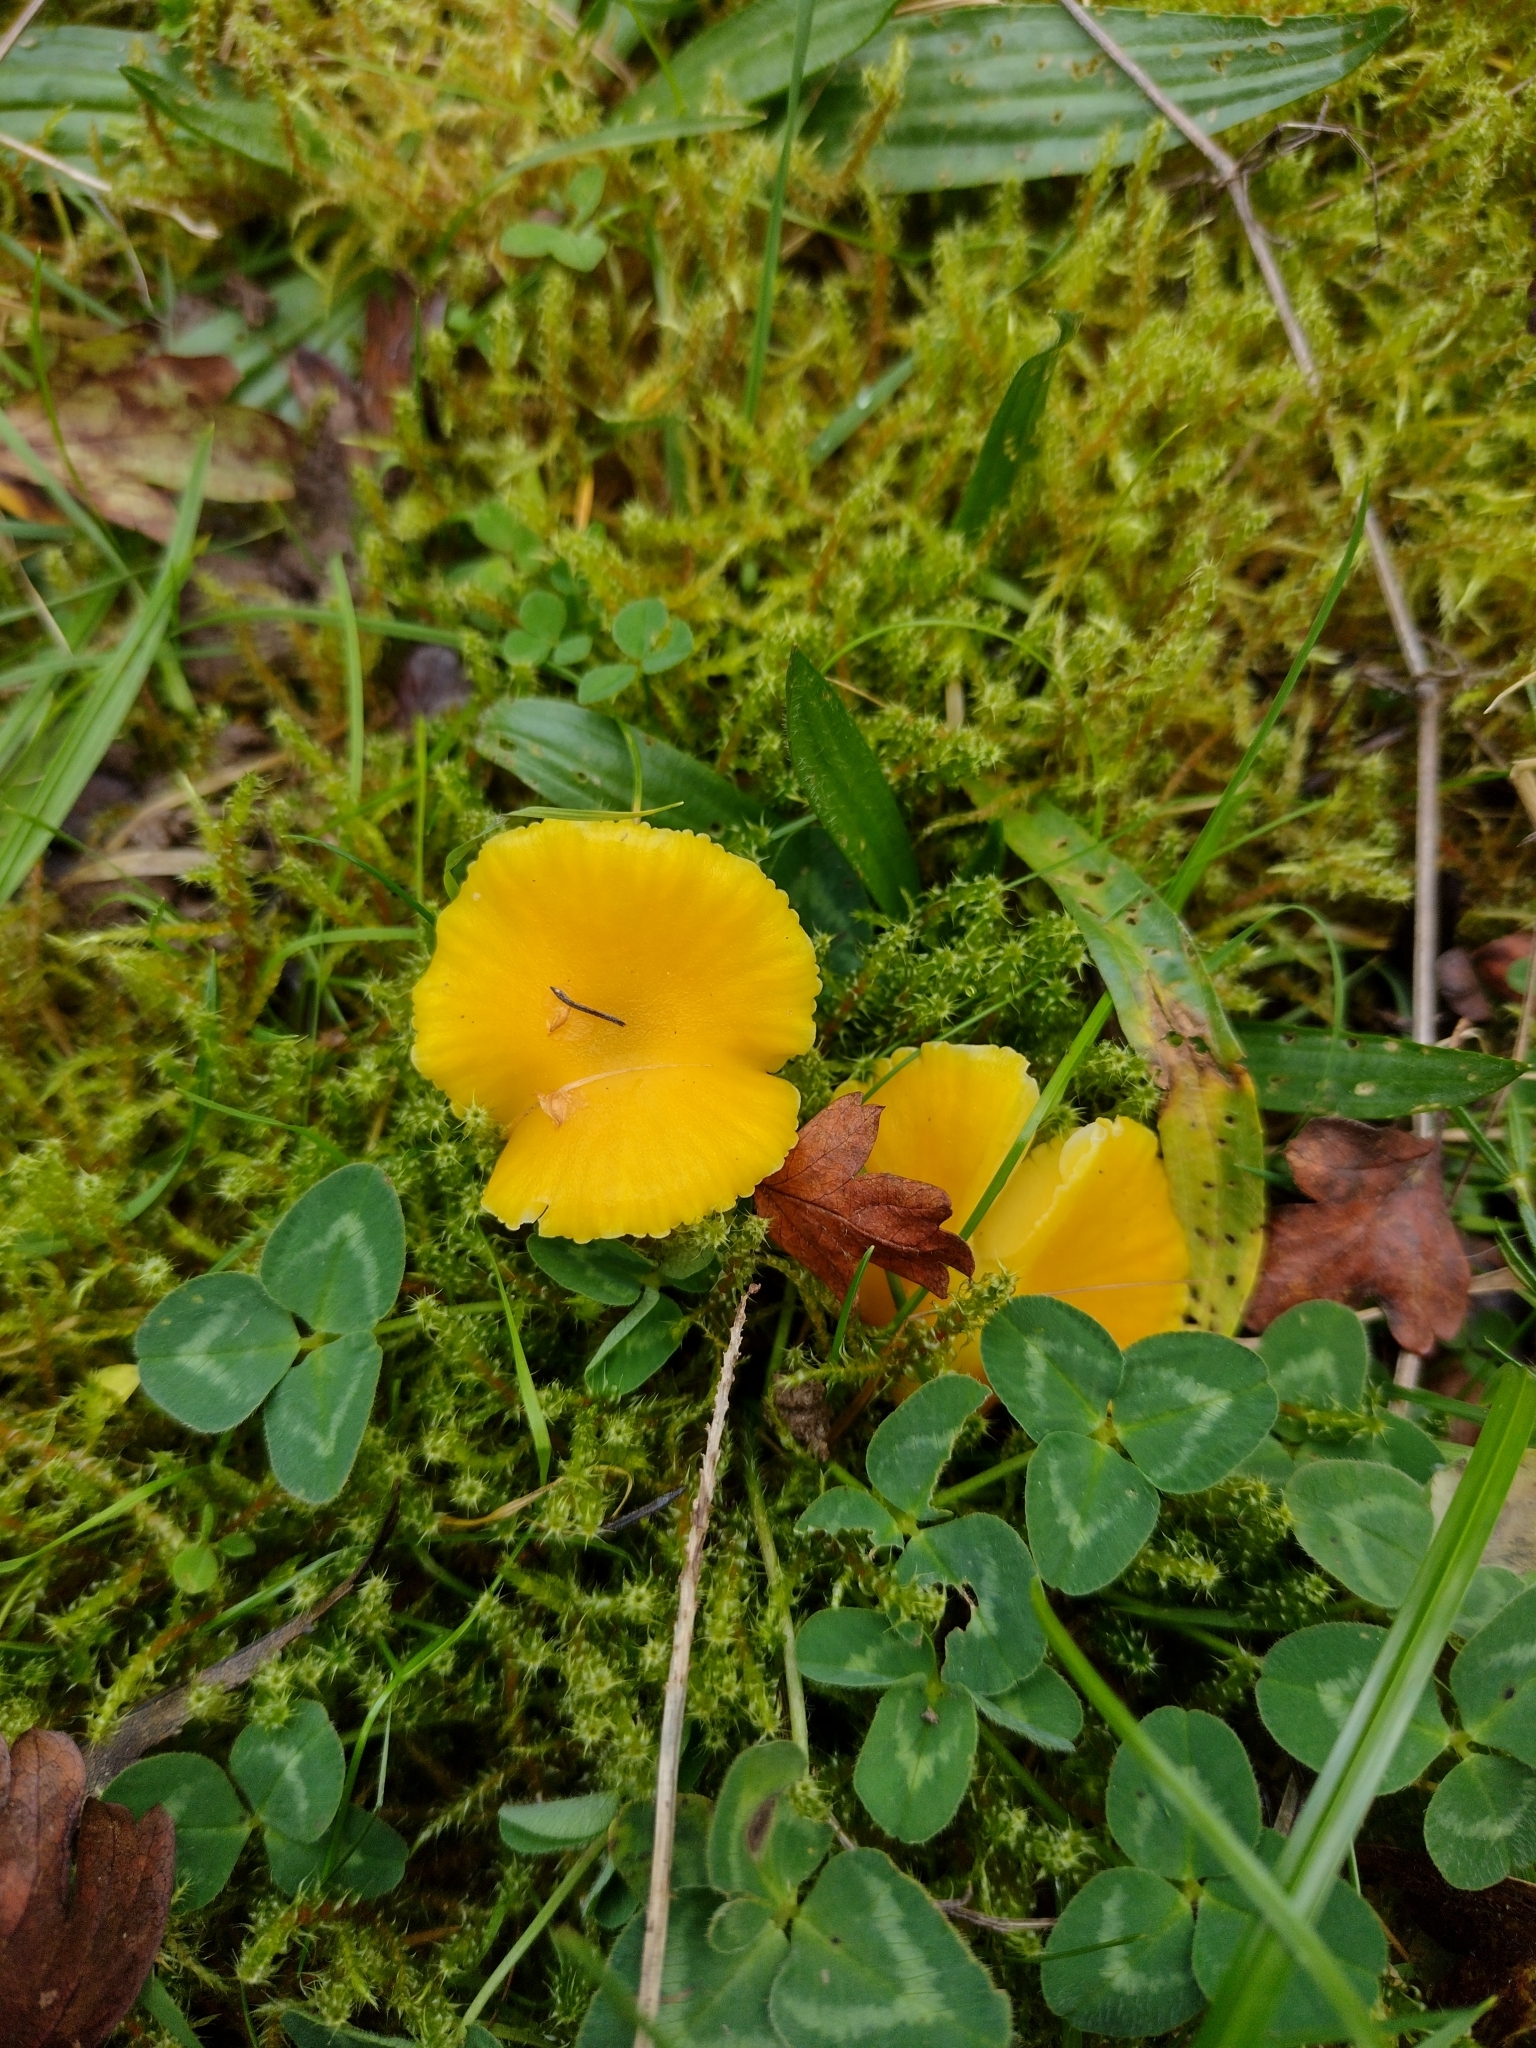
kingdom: Fungi
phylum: Basidiomycota
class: Agaricomycetes
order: Agaricales
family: Hygrophoraceae
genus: Hygrocybe
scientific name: Hygrocybe ceracea
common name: Butter waxcap
